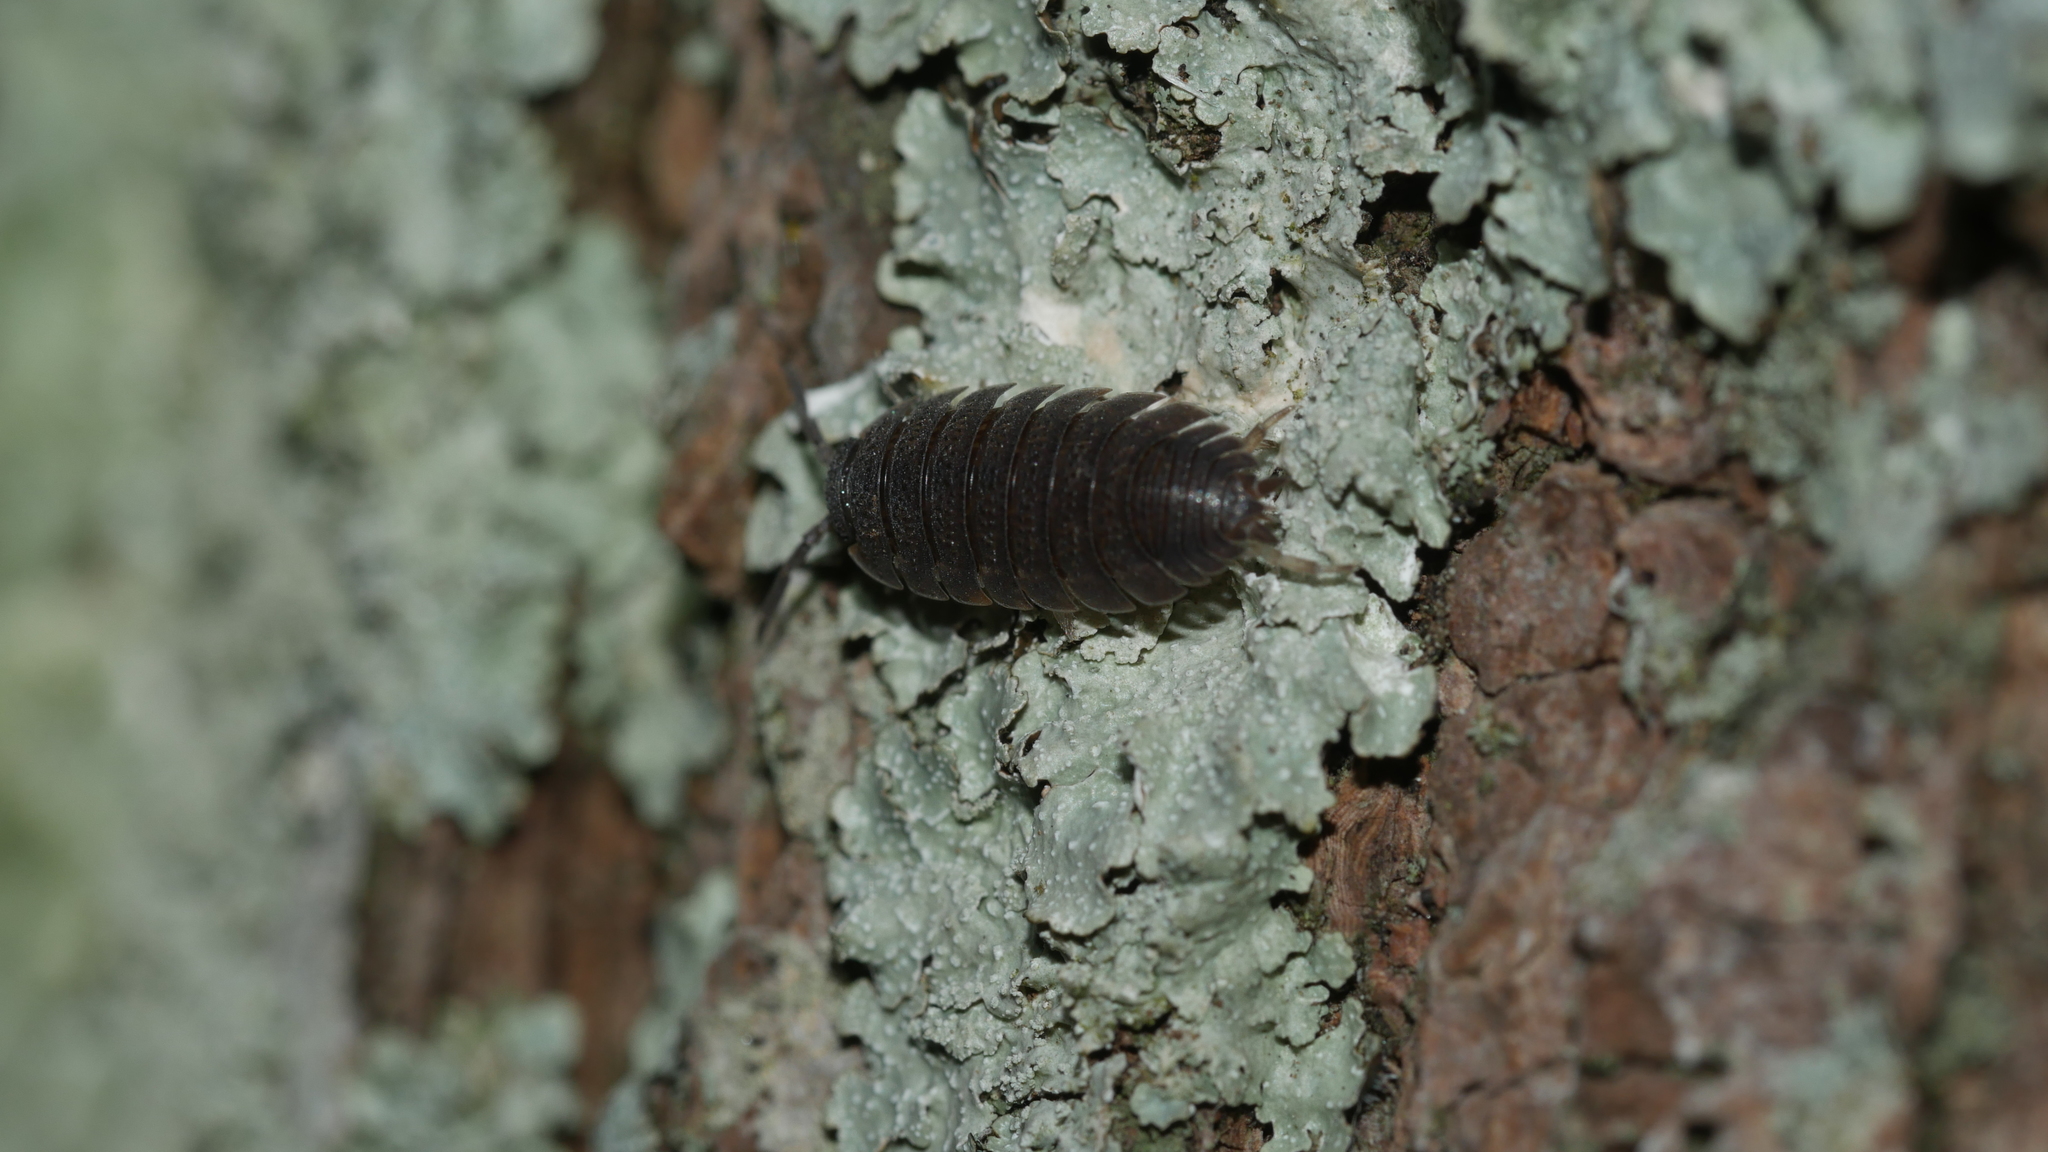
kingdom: Animalia
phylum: Arthropoda
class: Malacostraca
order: Isopoda
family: Porcellionidae
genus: Porcellio
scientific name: Porcellio scaber
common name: Common rough woodlouse
